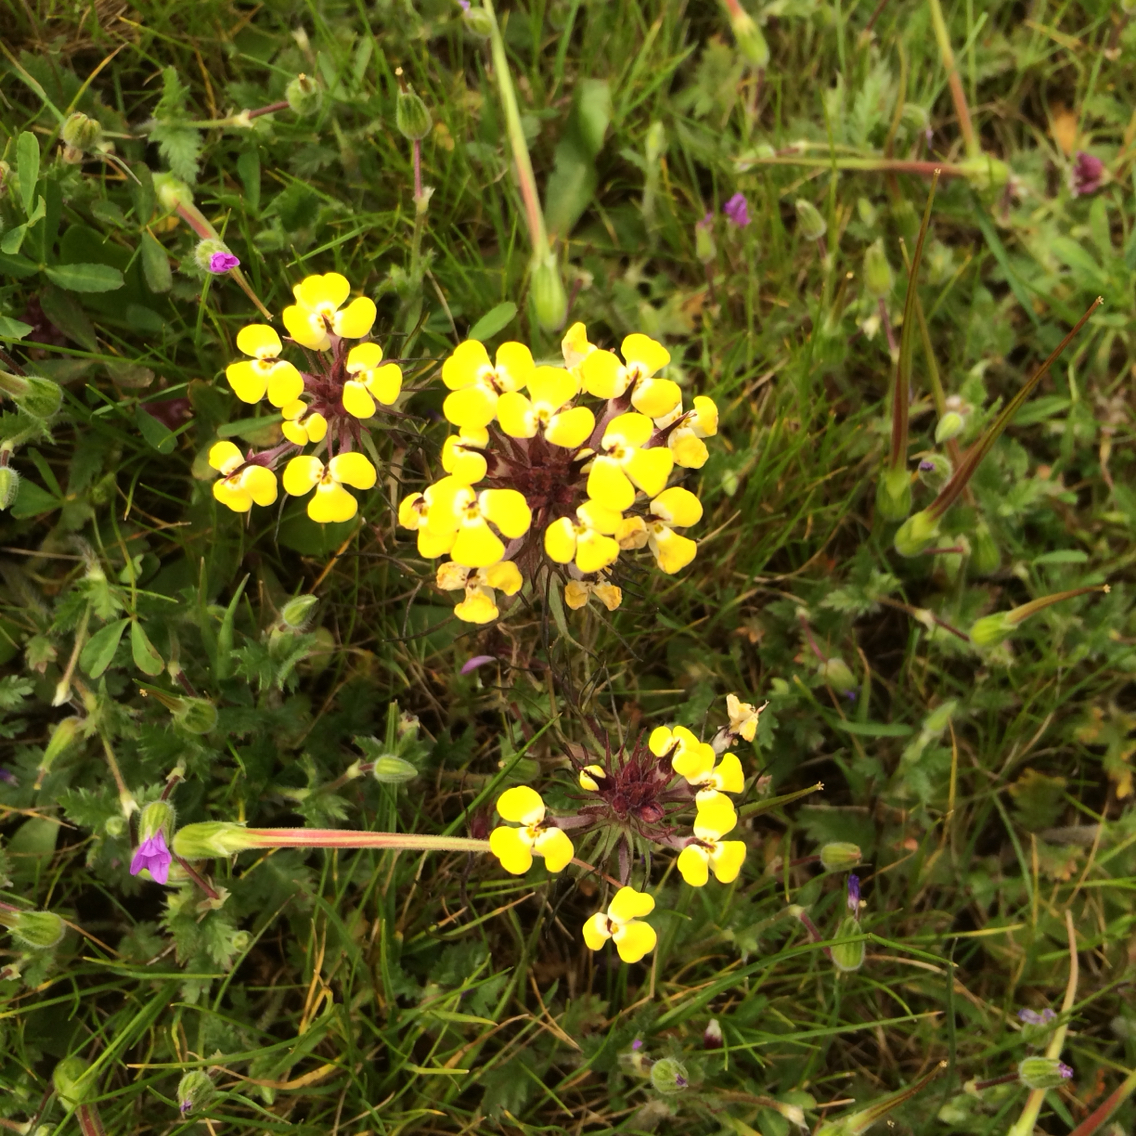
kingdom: Plantae
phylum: Tracheophyta
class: Magnoliopsida
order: Lamiales
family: Orobanchaceae
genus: Triphysaria
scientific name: Triphysaria eriantha
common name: Johnny-tuck
